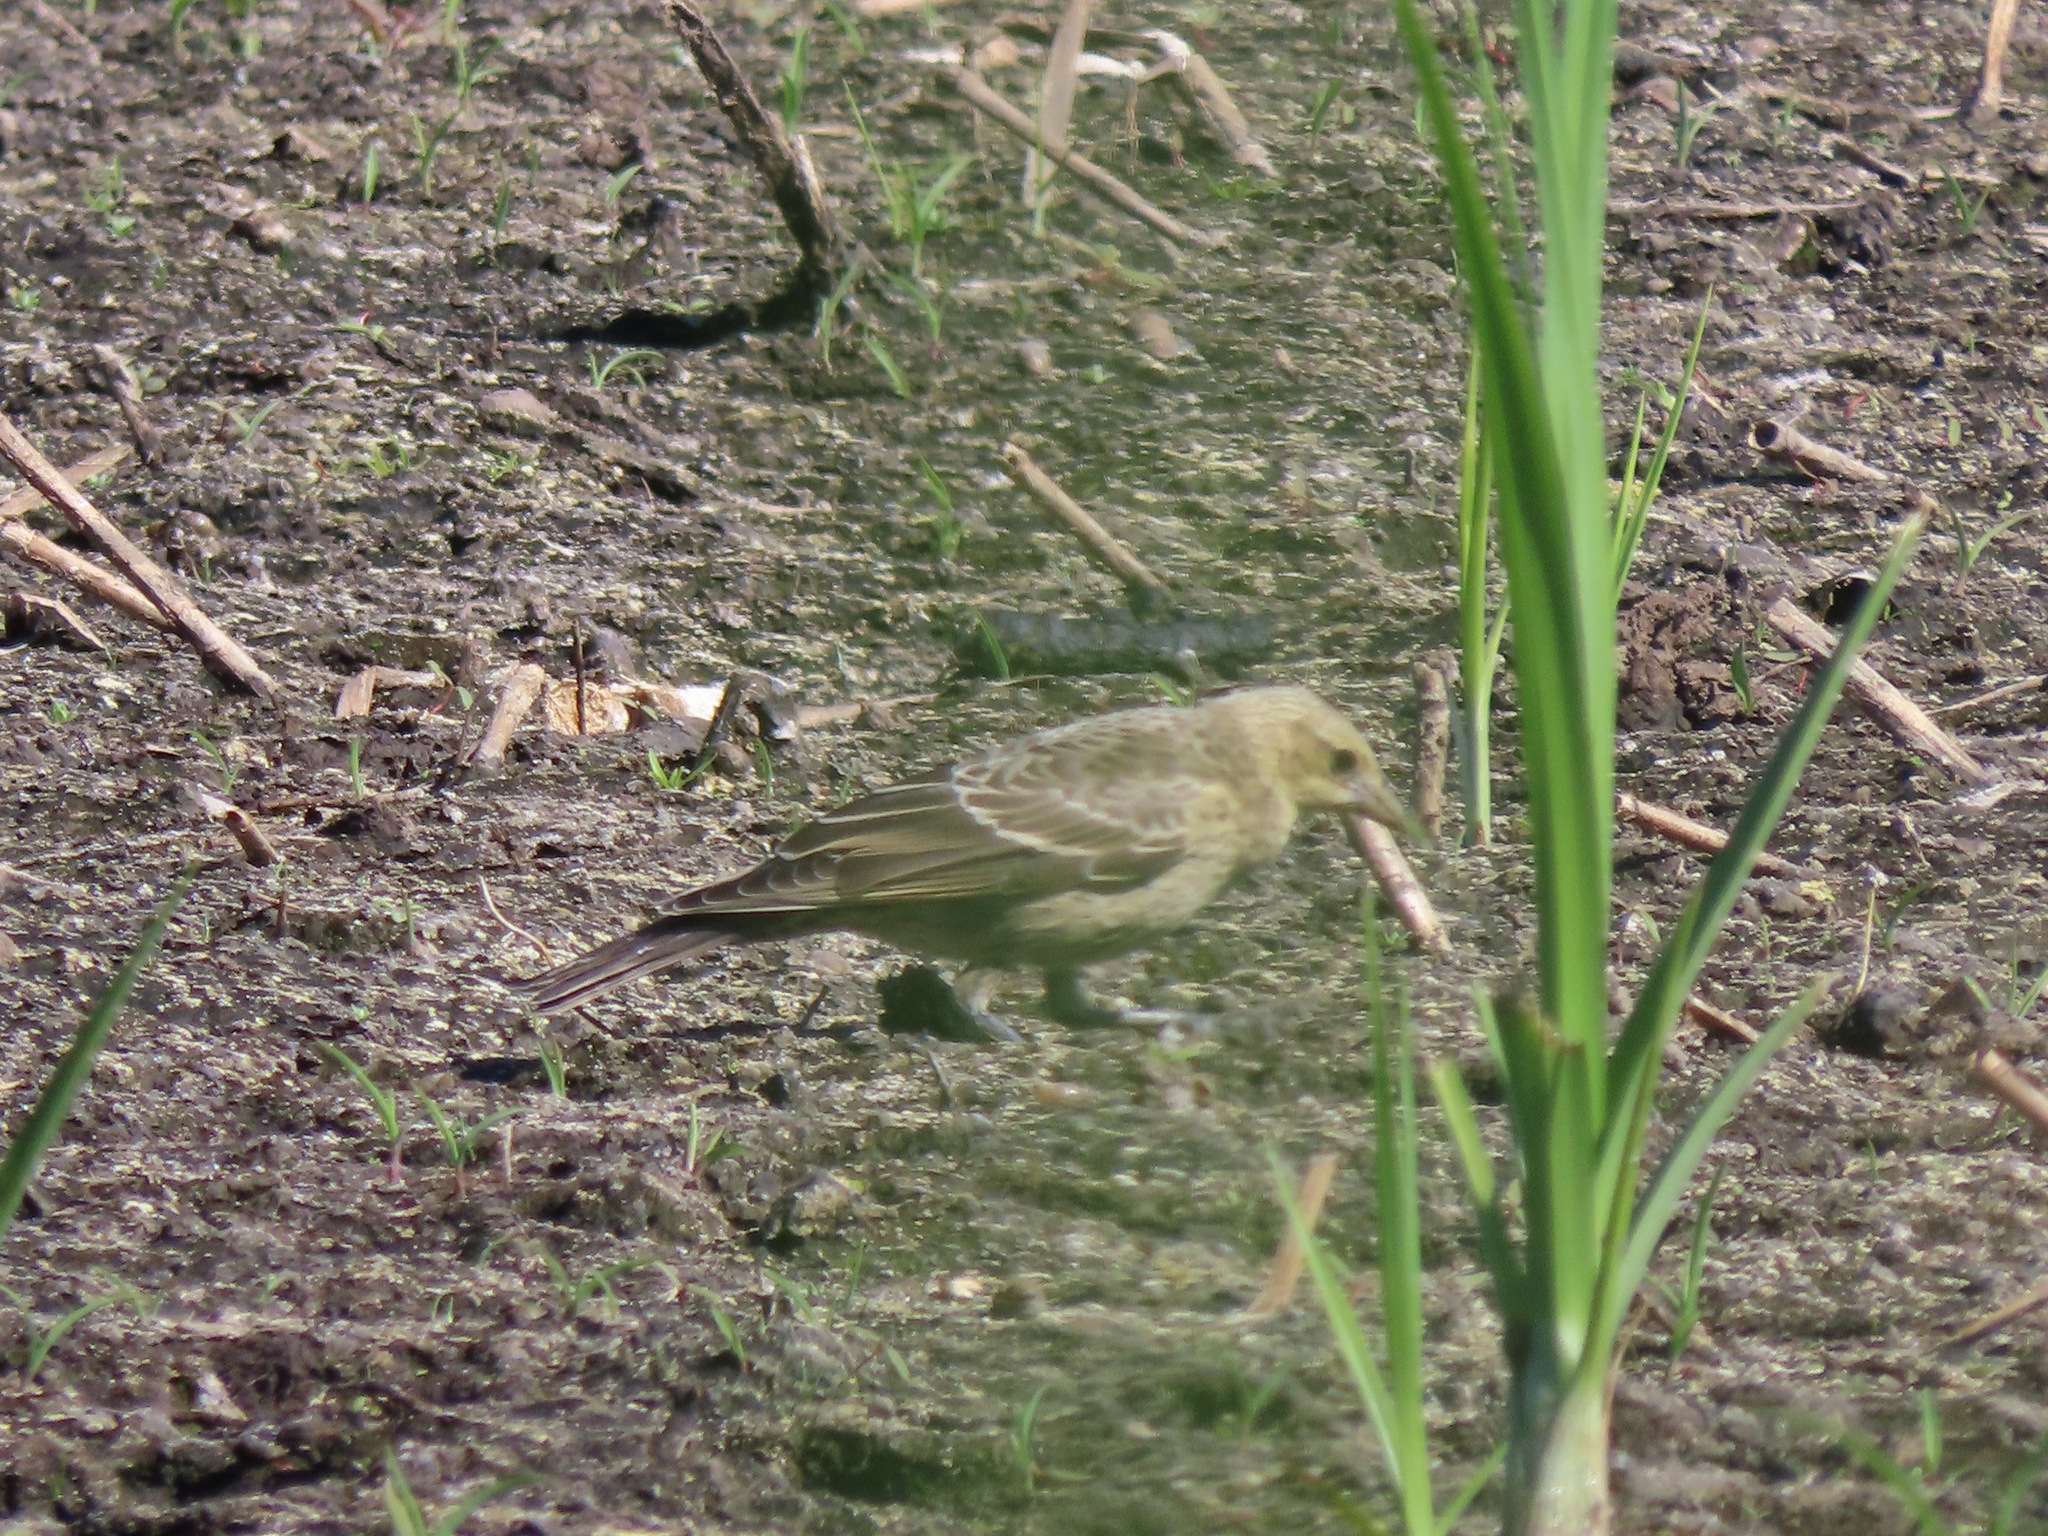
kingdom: Animalia
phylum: Chordata
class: Aves
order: Passeriformes
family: Icteridae
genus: Molothrus
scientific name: Molothrus ater
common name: Brown-headed cowbird
